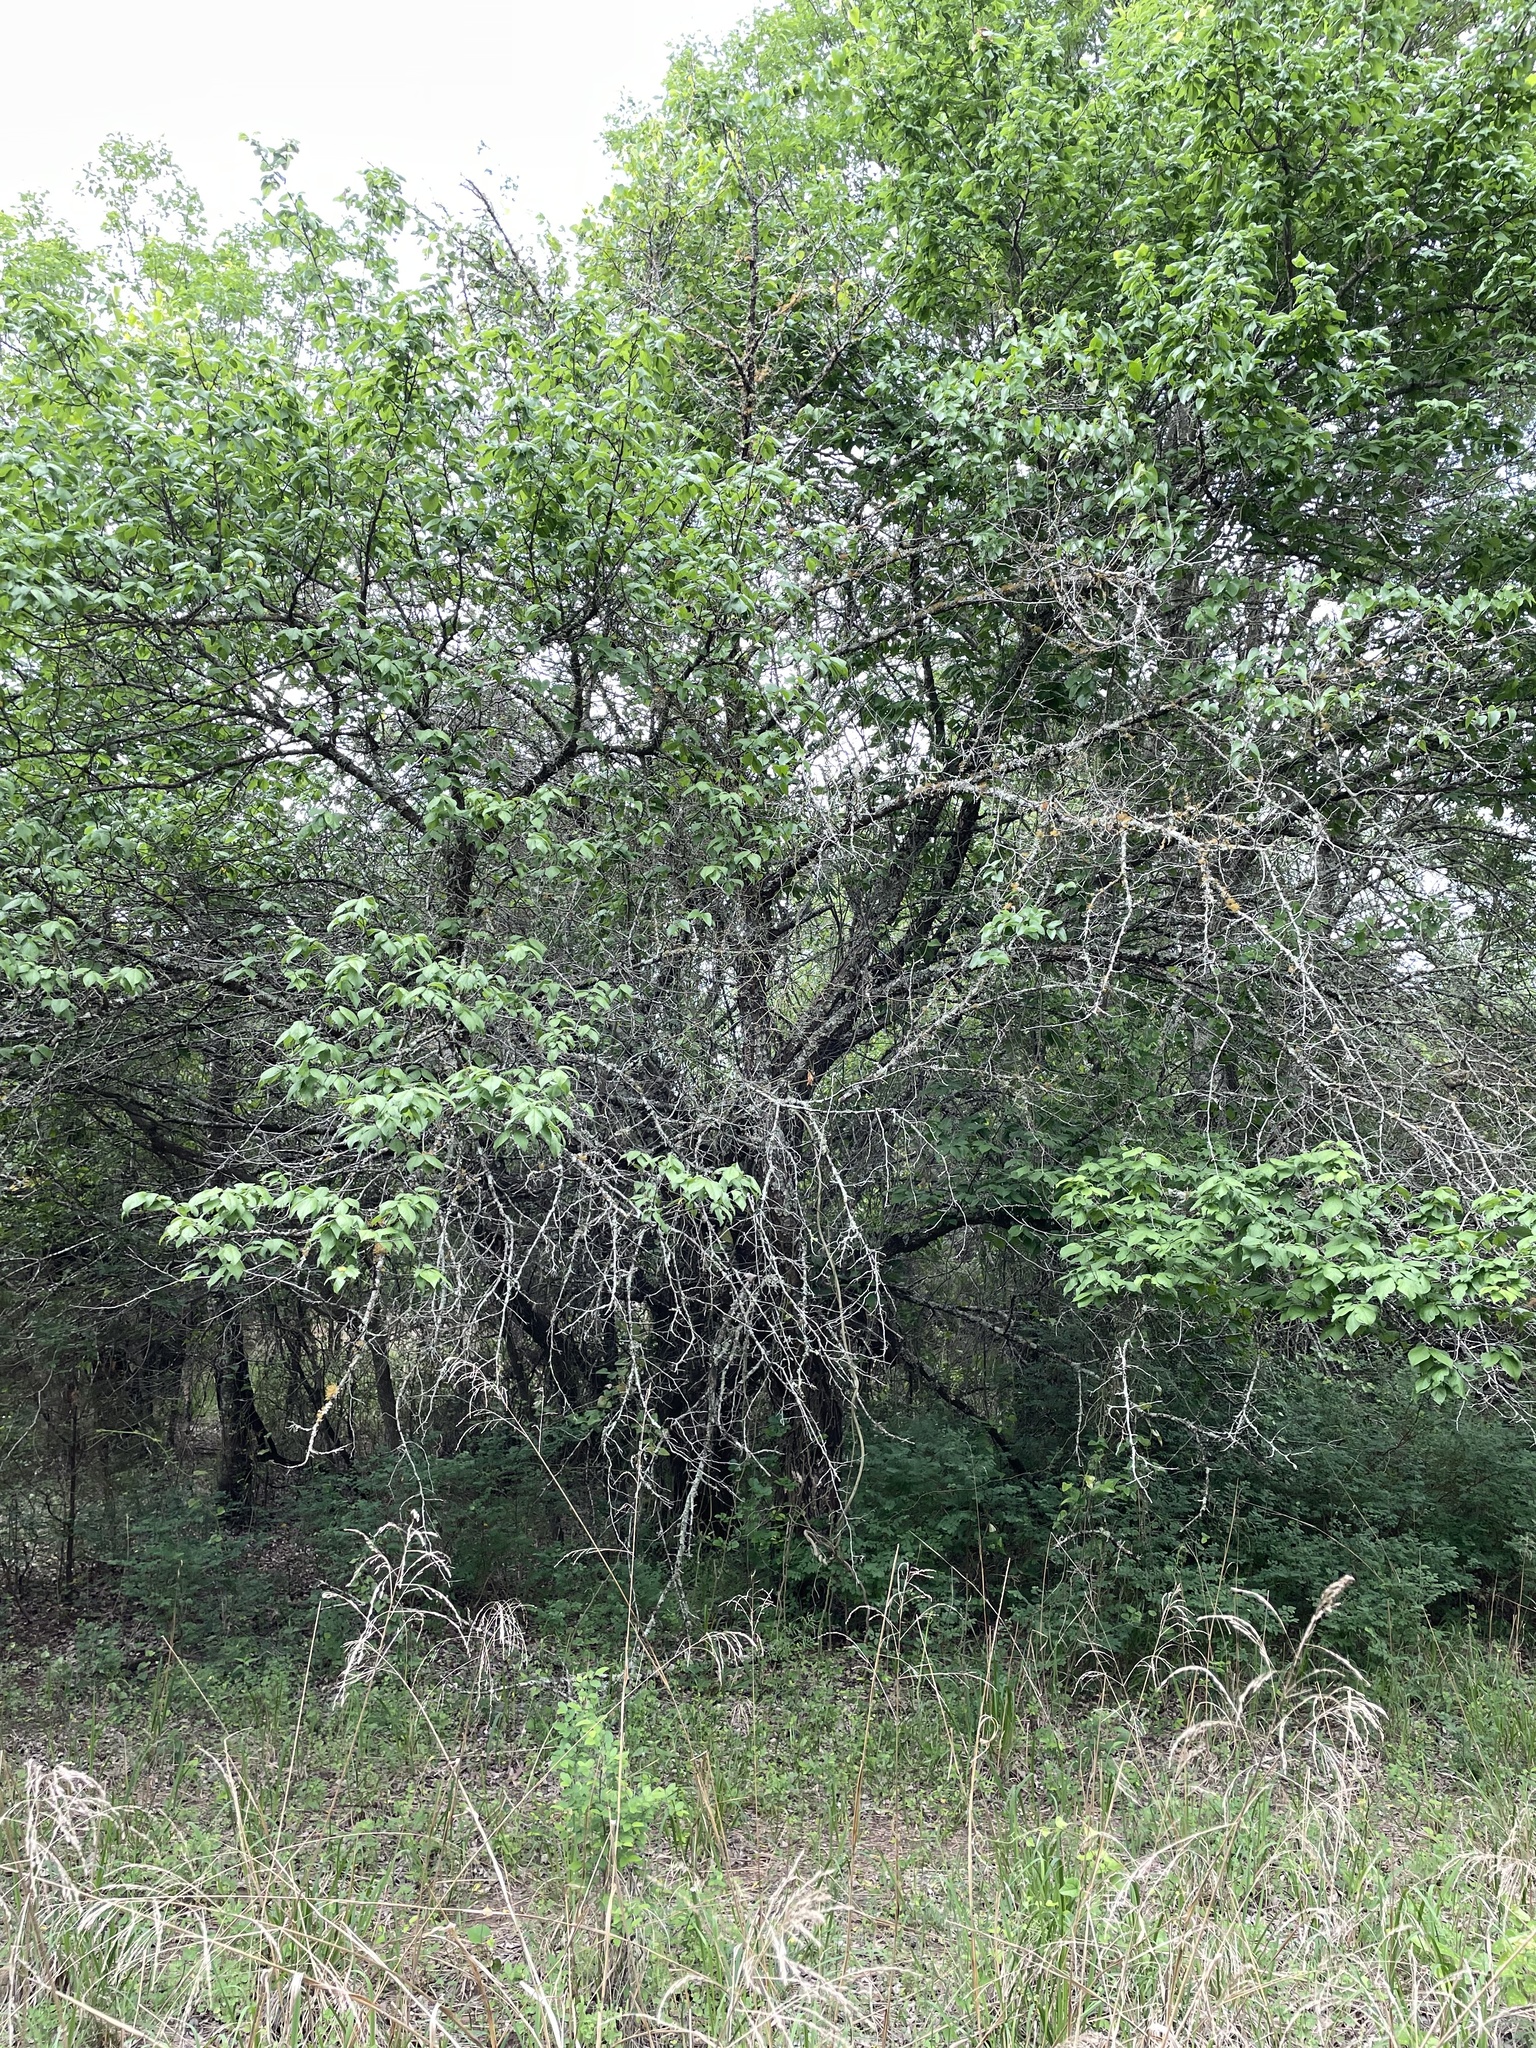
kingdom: Plantae
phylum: Tracheophyta
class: Magnoliopsida
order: Rosales
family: Rosaceae
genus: Prunus
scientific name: Prunus mexicana
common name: Mexican plum
